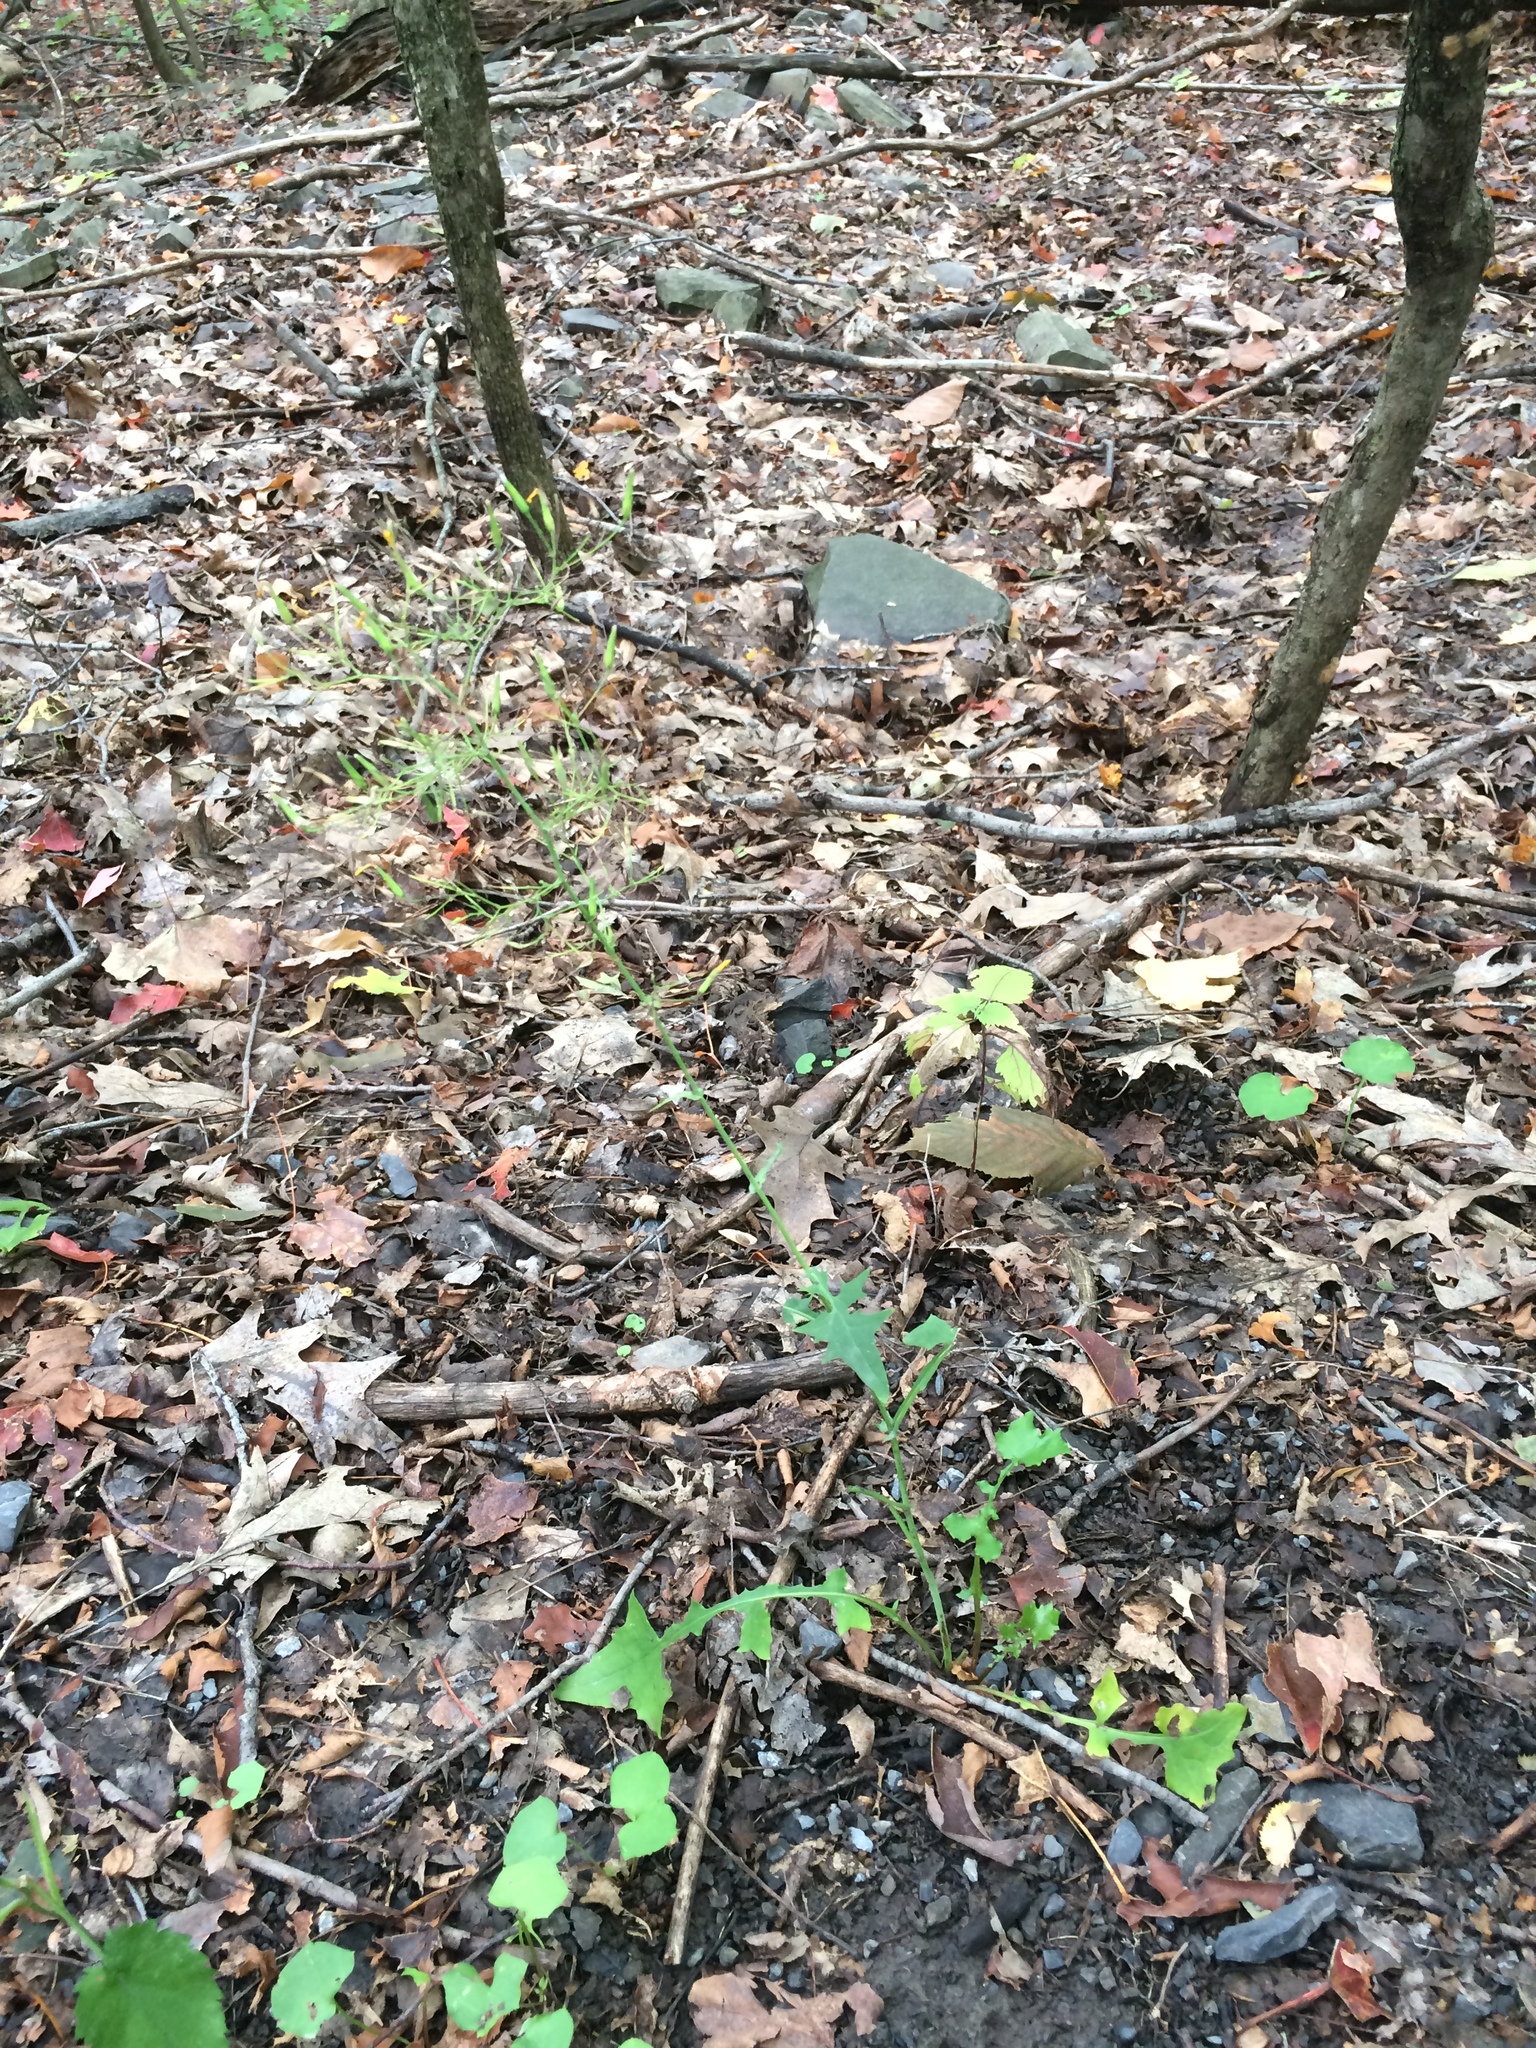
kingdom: Plantae
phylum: Tracheophyta
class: Magnoliopsida
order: Asterales
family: Asteraceae
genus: Mycelis
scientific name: Mycelis muralis
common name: Wall lettuce
